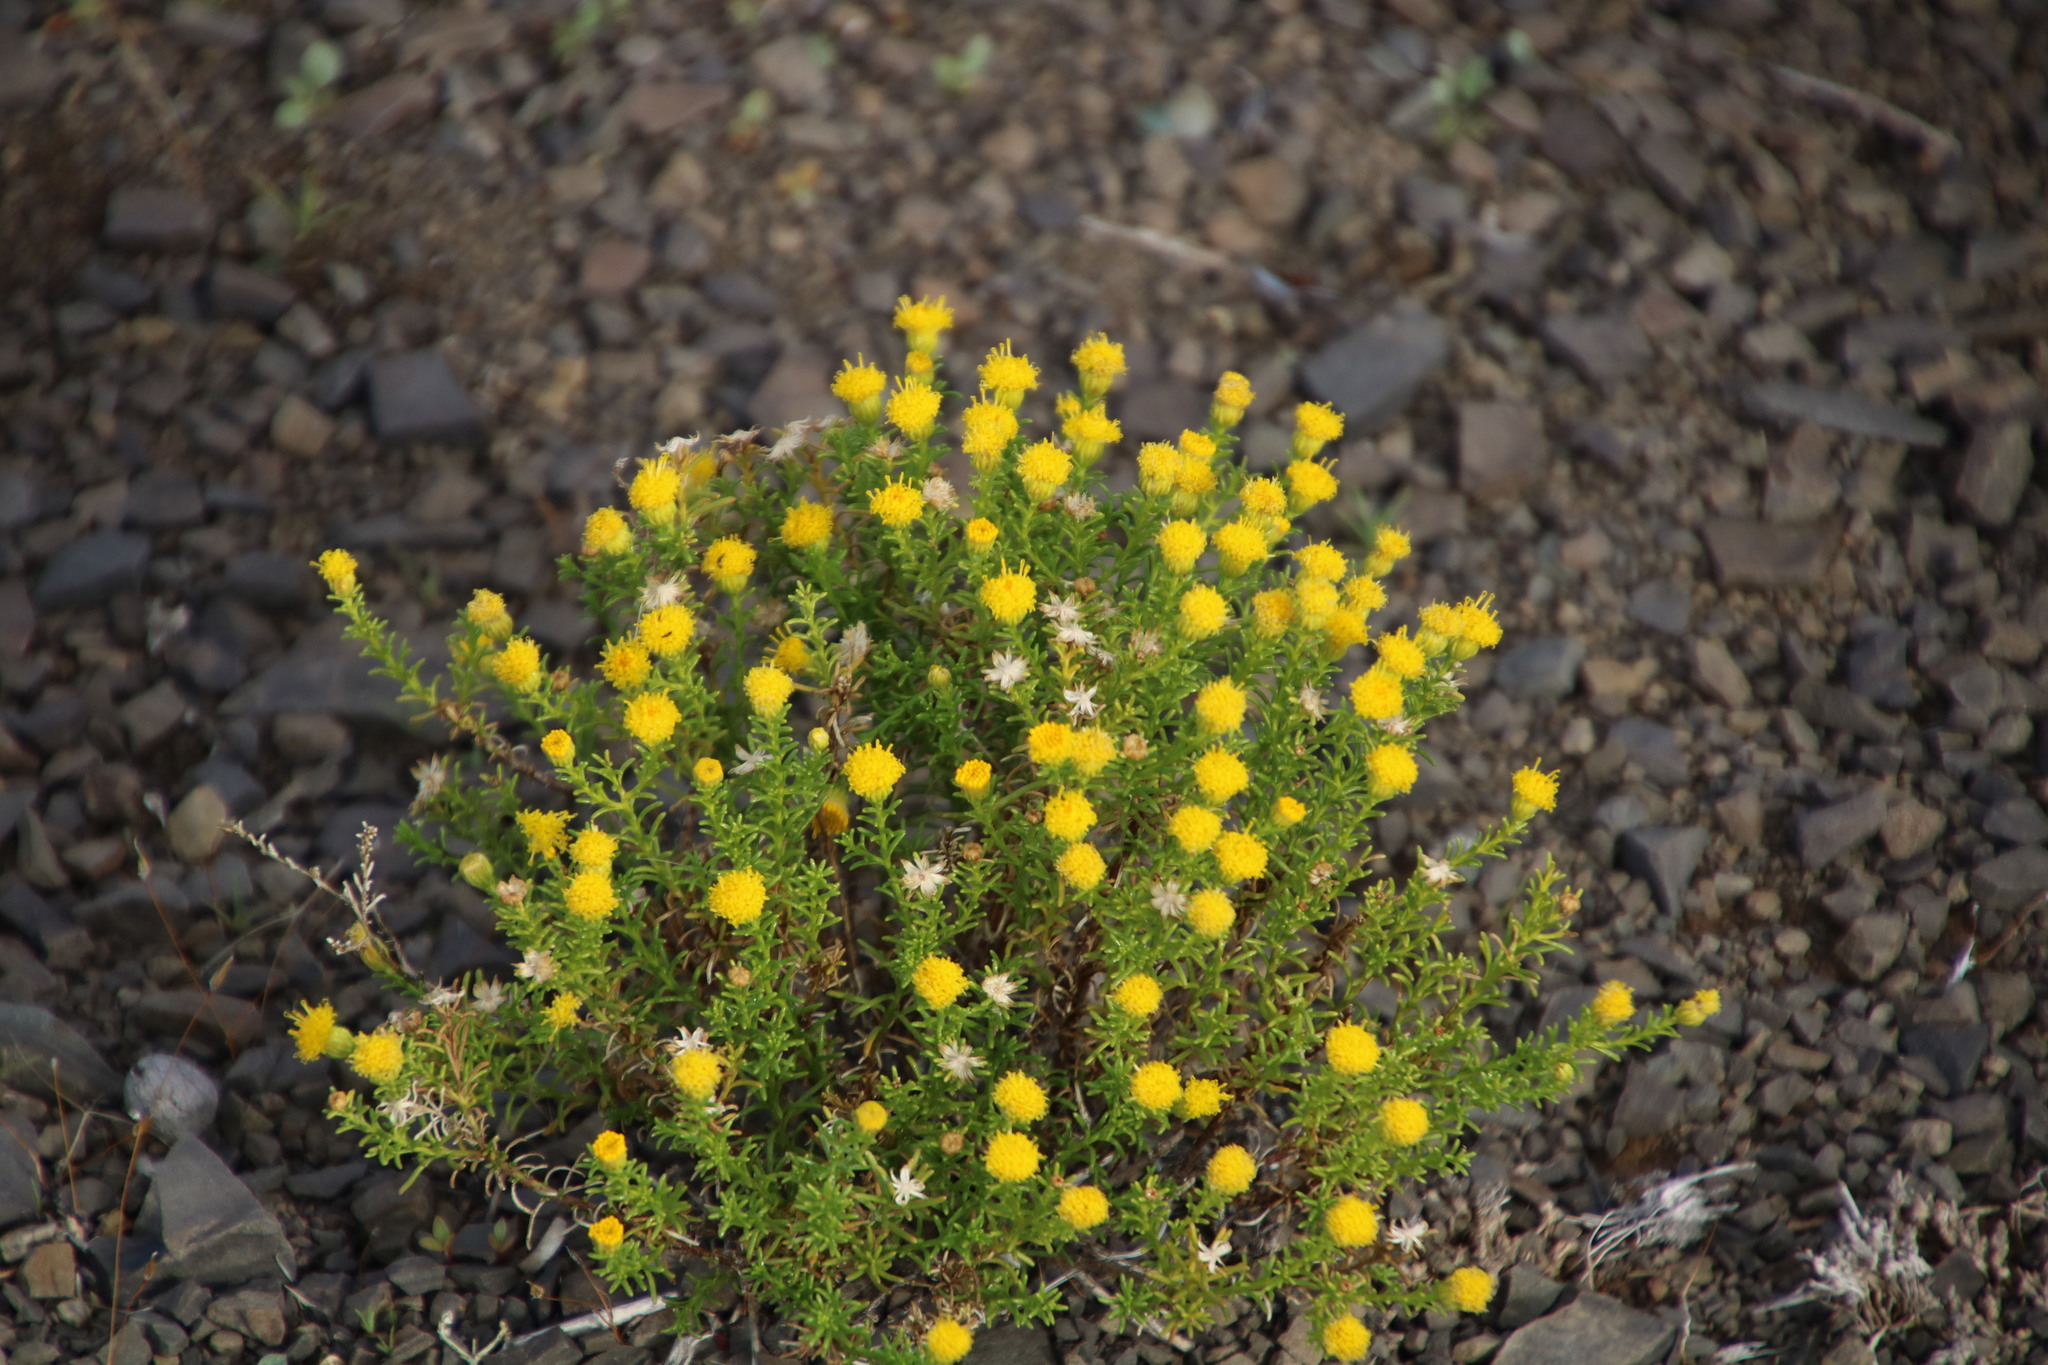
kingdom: Plantae
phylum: Tracheophyta
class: Magnoliopsida
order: Asterales
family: Asteraceae
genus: Chrysocoma
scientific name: Chrysocoma ciliata
